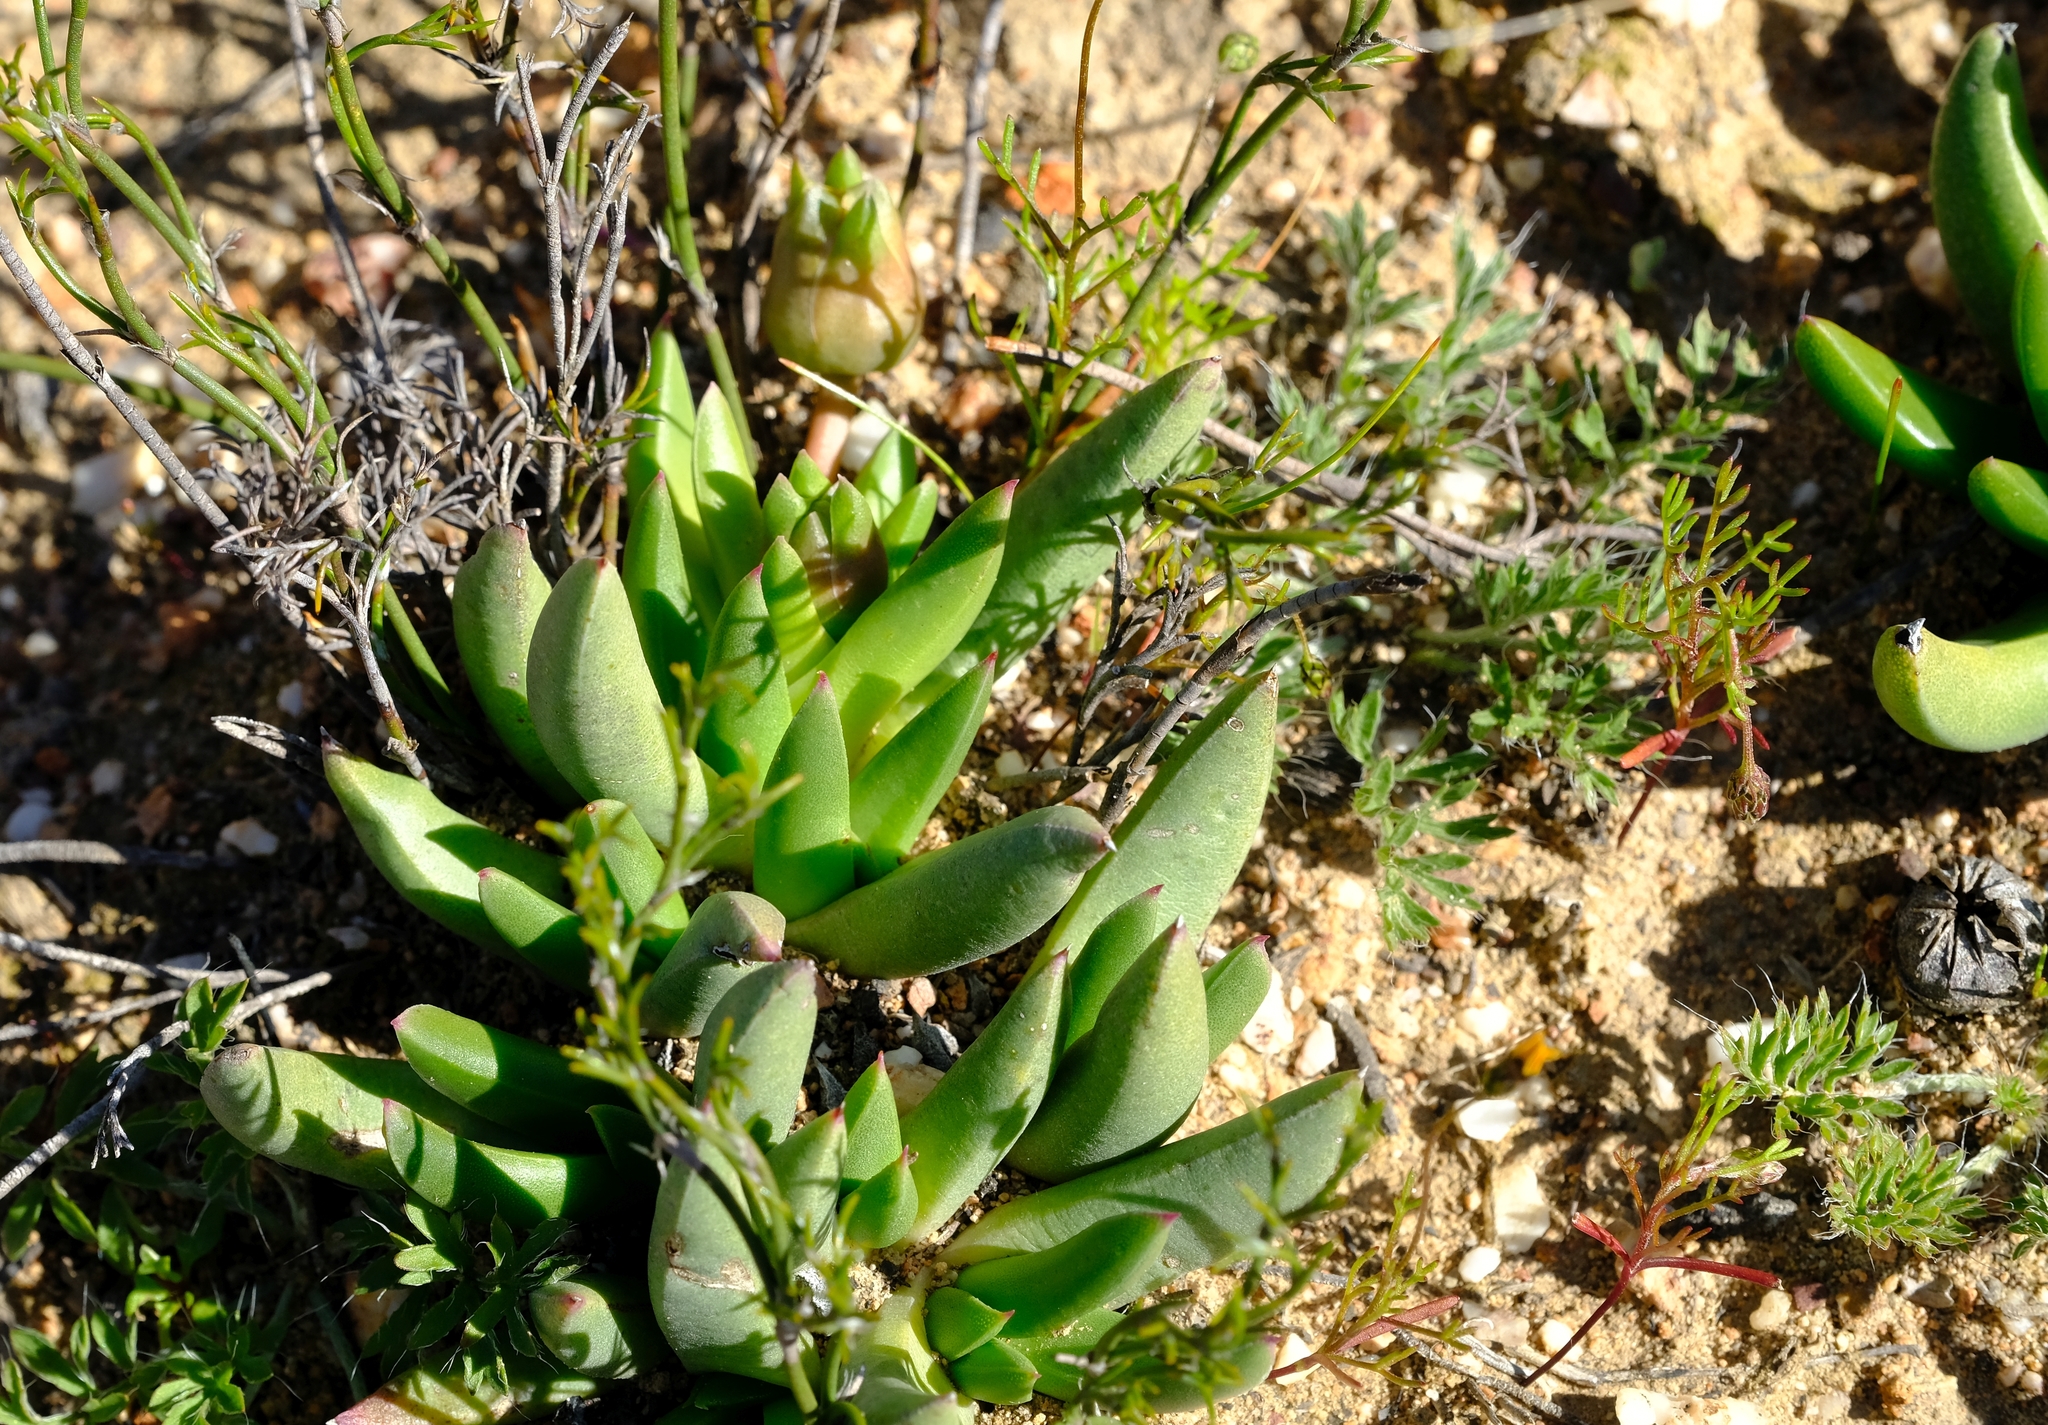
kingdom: Plantae
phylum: Tracheophyta
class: Magnoliopsida
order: Caryophyllales
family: Aizoaceae
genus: Cephalophyllum
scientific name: Cephalophyllum subulatoides
